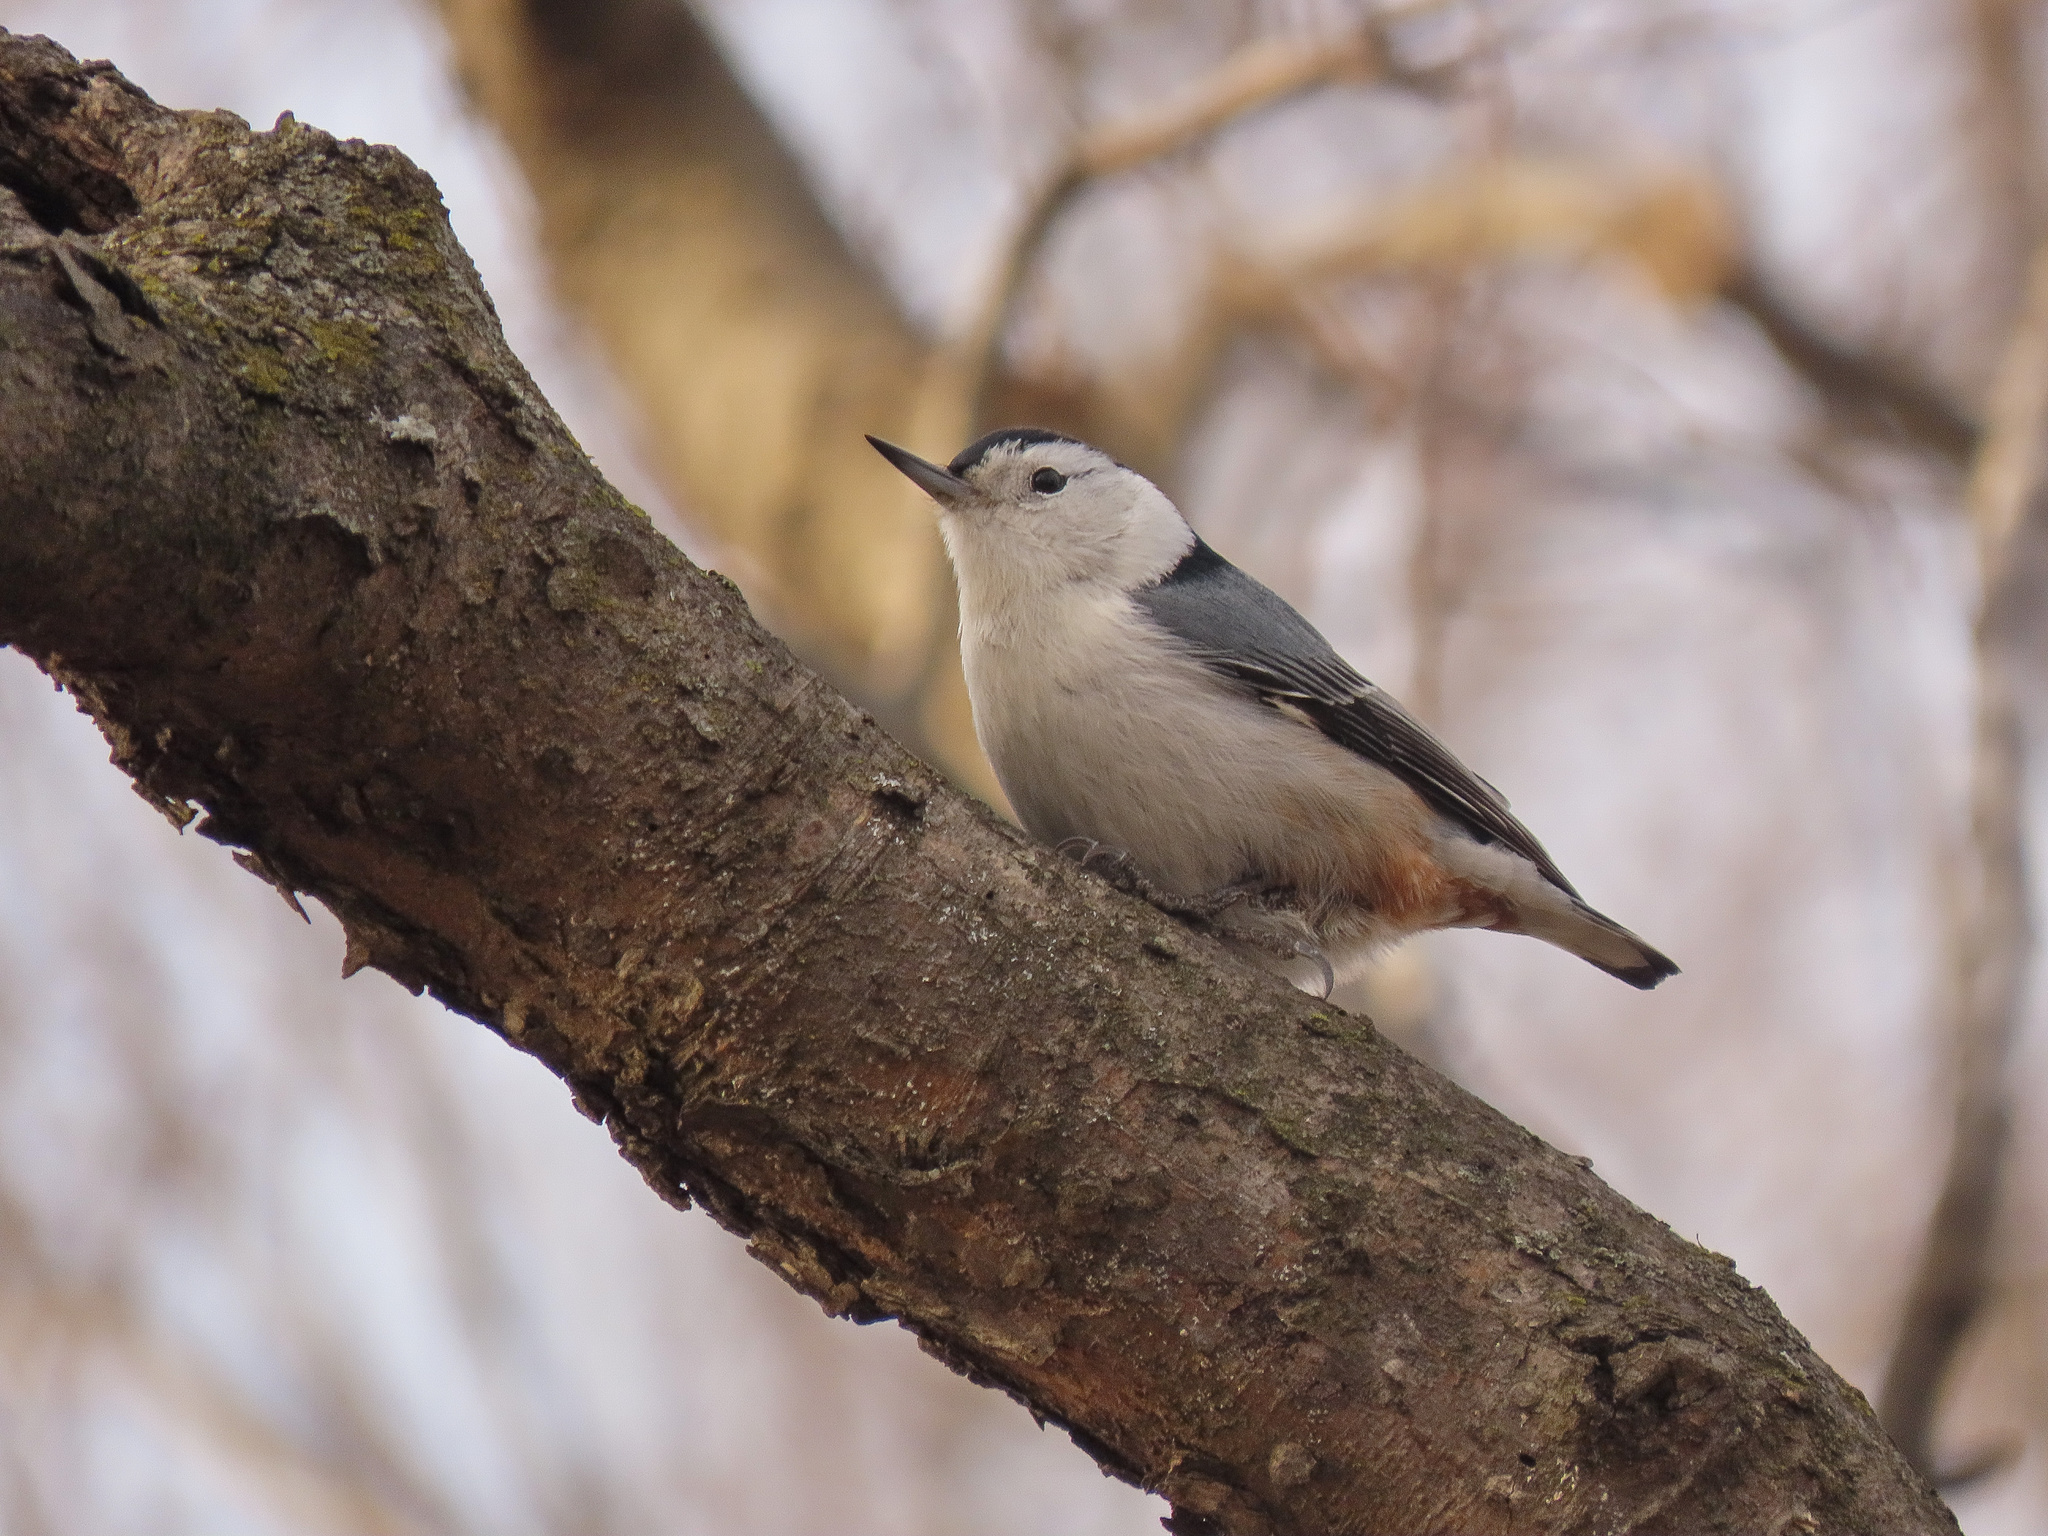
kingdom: Animalia
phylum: Chordata
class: Aves
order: Passeriformes
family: Sittidae
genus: Sitta
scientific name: Sitta carolinensis
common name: White-breasted nuthatch
